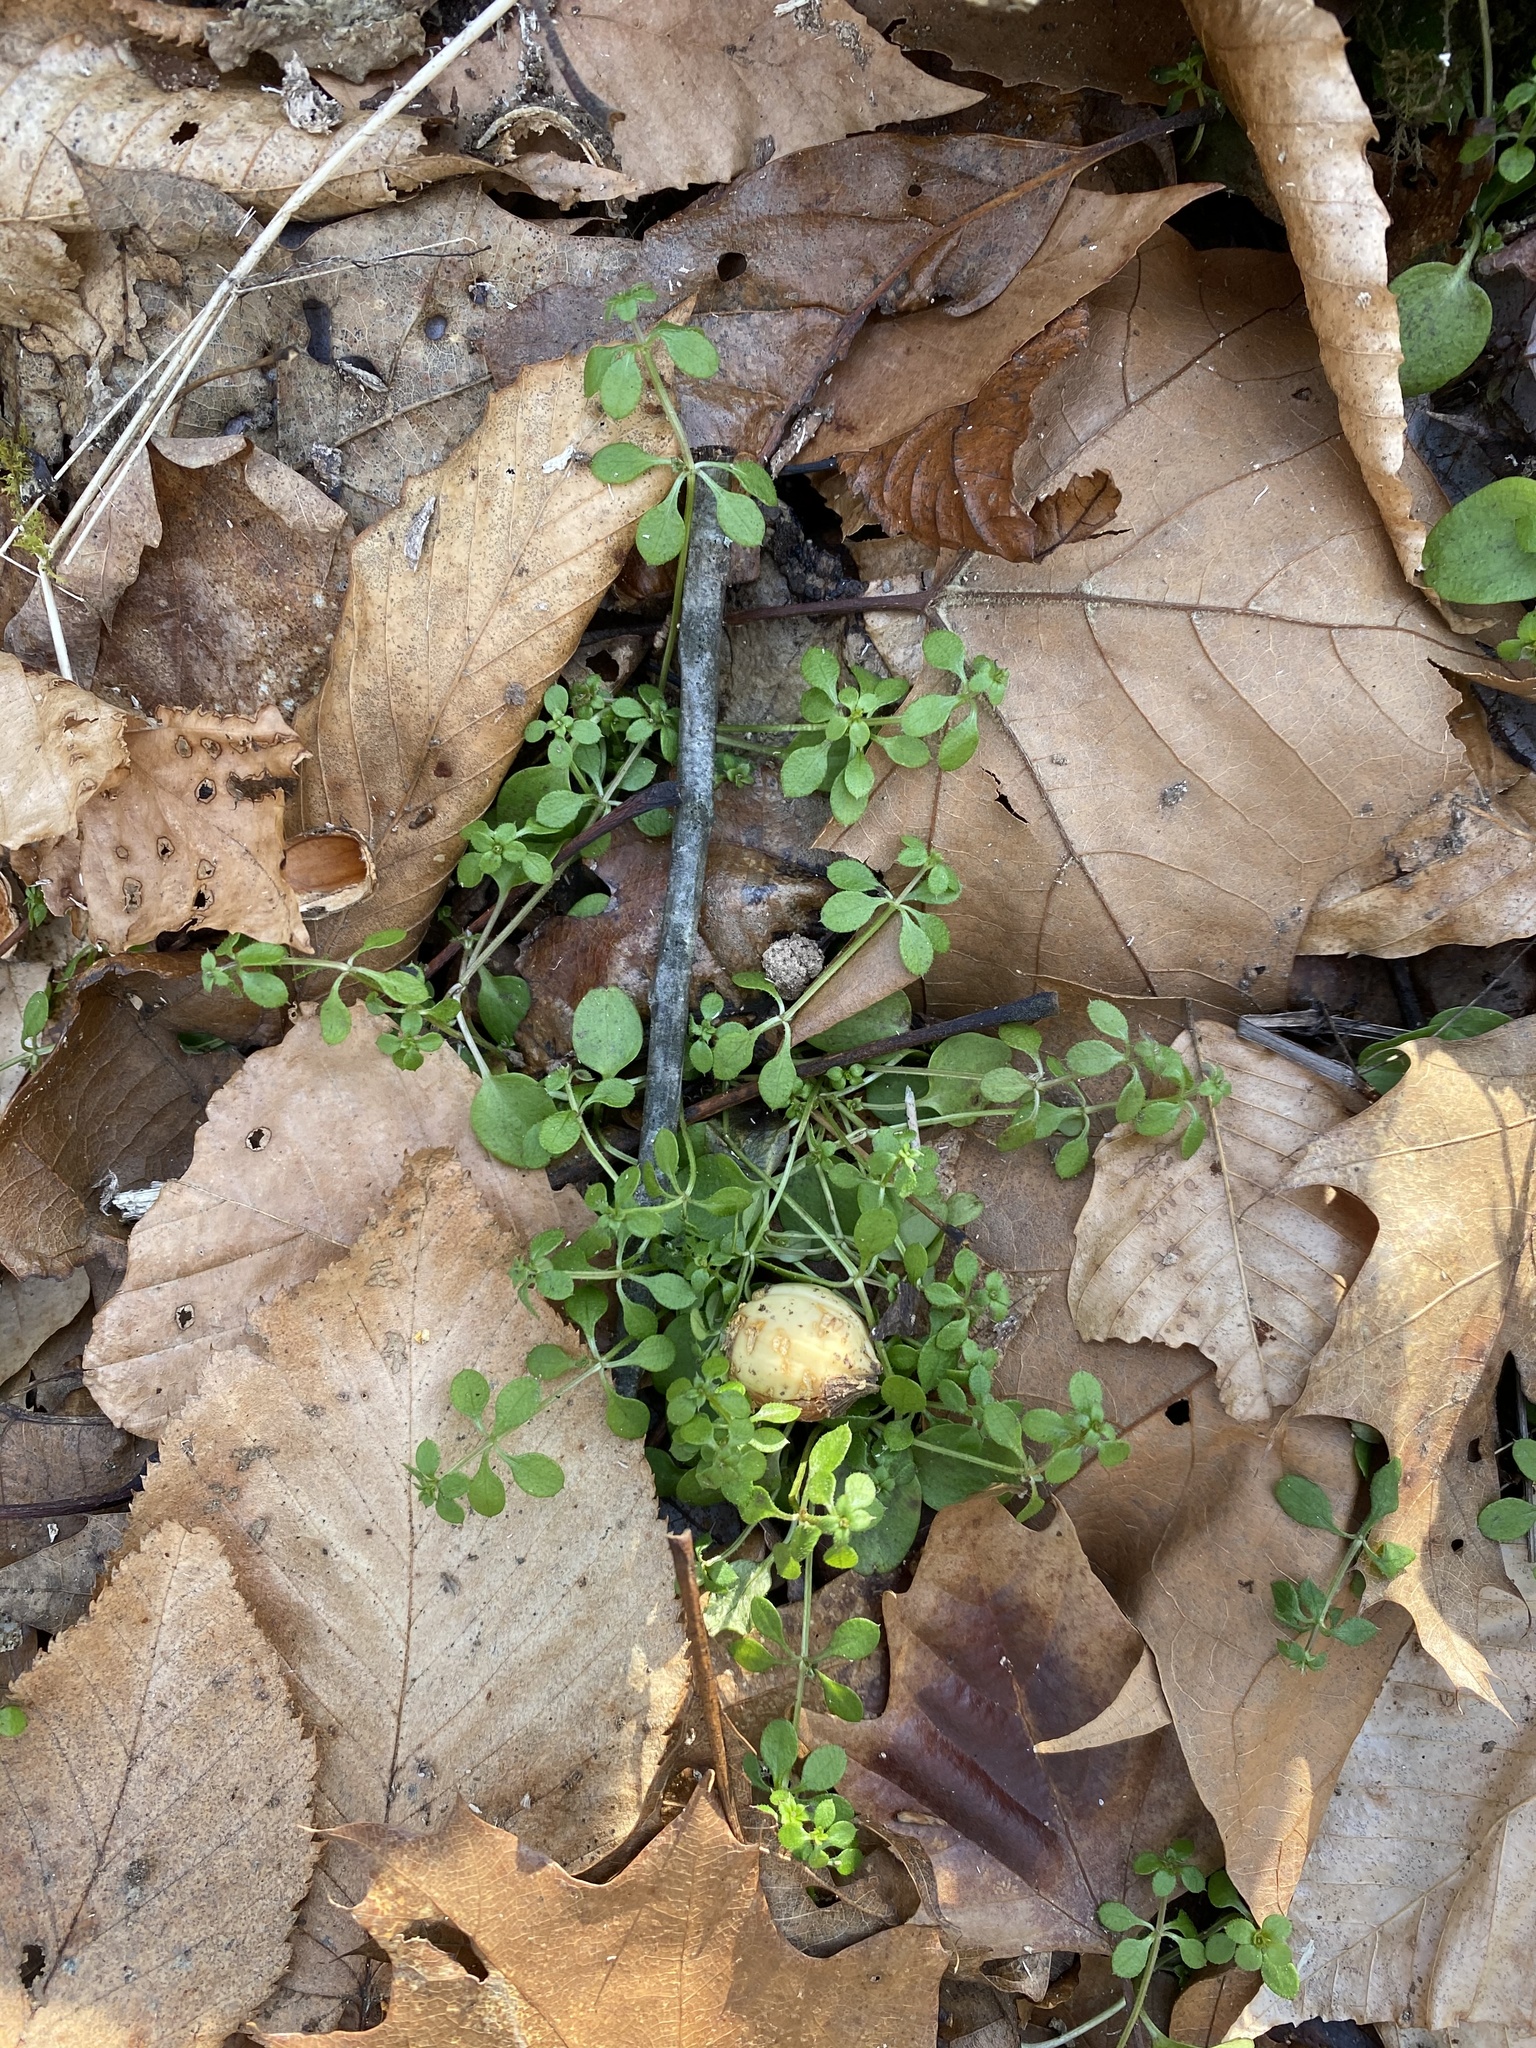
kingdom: Plantae
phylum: Tracheophyta
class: Magnoliopsida
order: Gentianales
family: Rubiaceae
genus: Galium
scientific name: Galium aparine
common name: Cleavers
